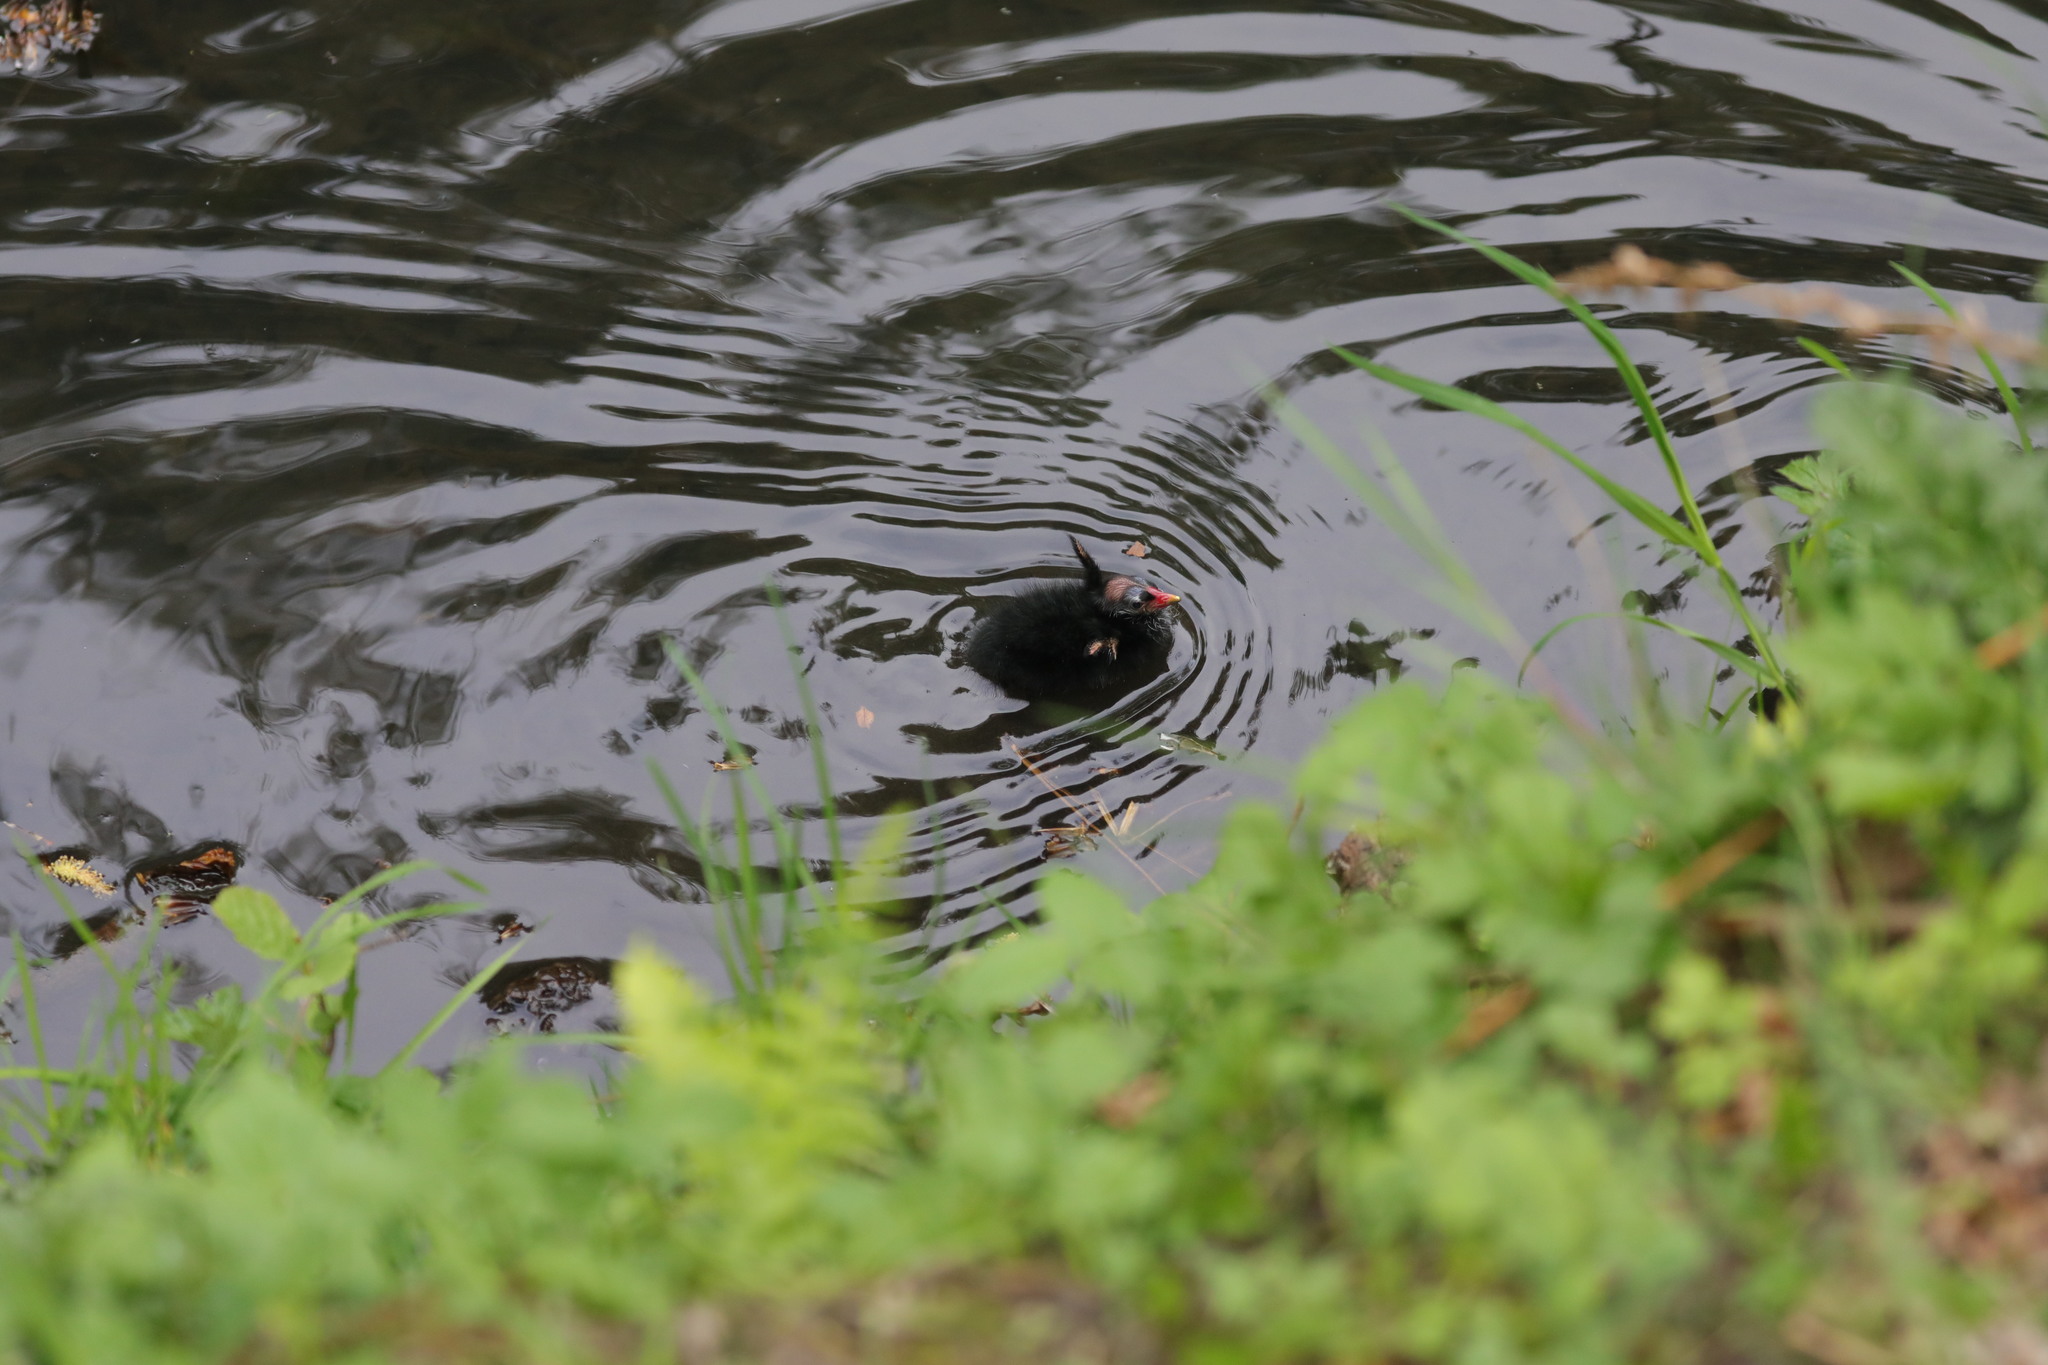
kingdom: Animalia
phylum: Chordata
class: Aves
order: Gruiformes
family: Rallidae
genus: Gallinula
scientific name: Gallinula chloropus
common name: Common moorhen
